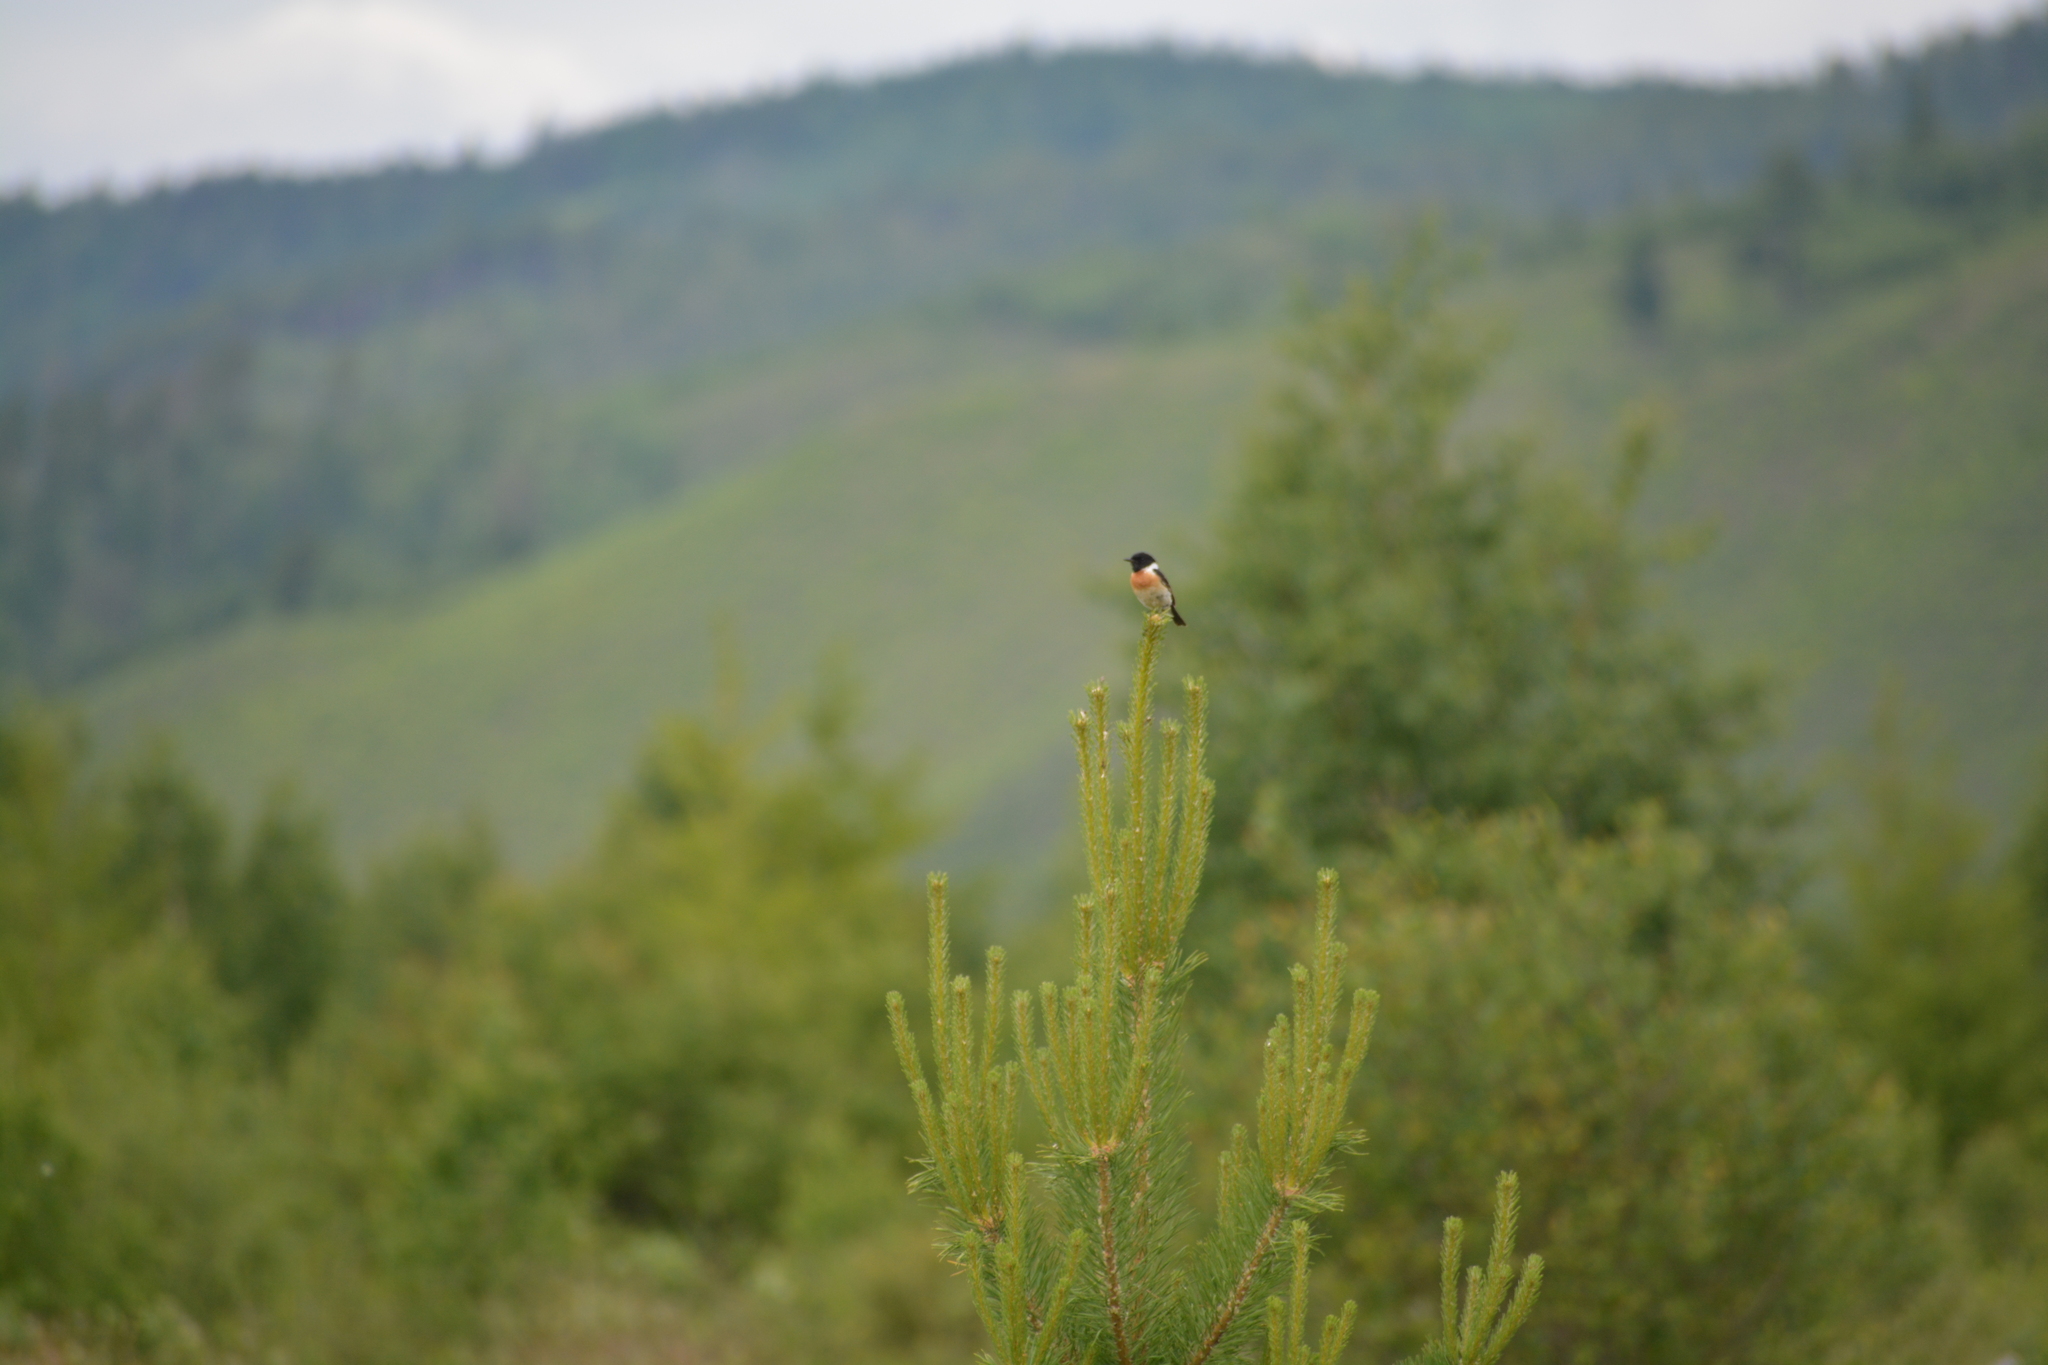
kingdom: Animalia
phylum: Chordata
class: Aves
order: Passeriformes
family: Muscicapidae
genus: Saxicola
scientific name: Saxicola stejnegeri
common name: Stejneger's stonechat
